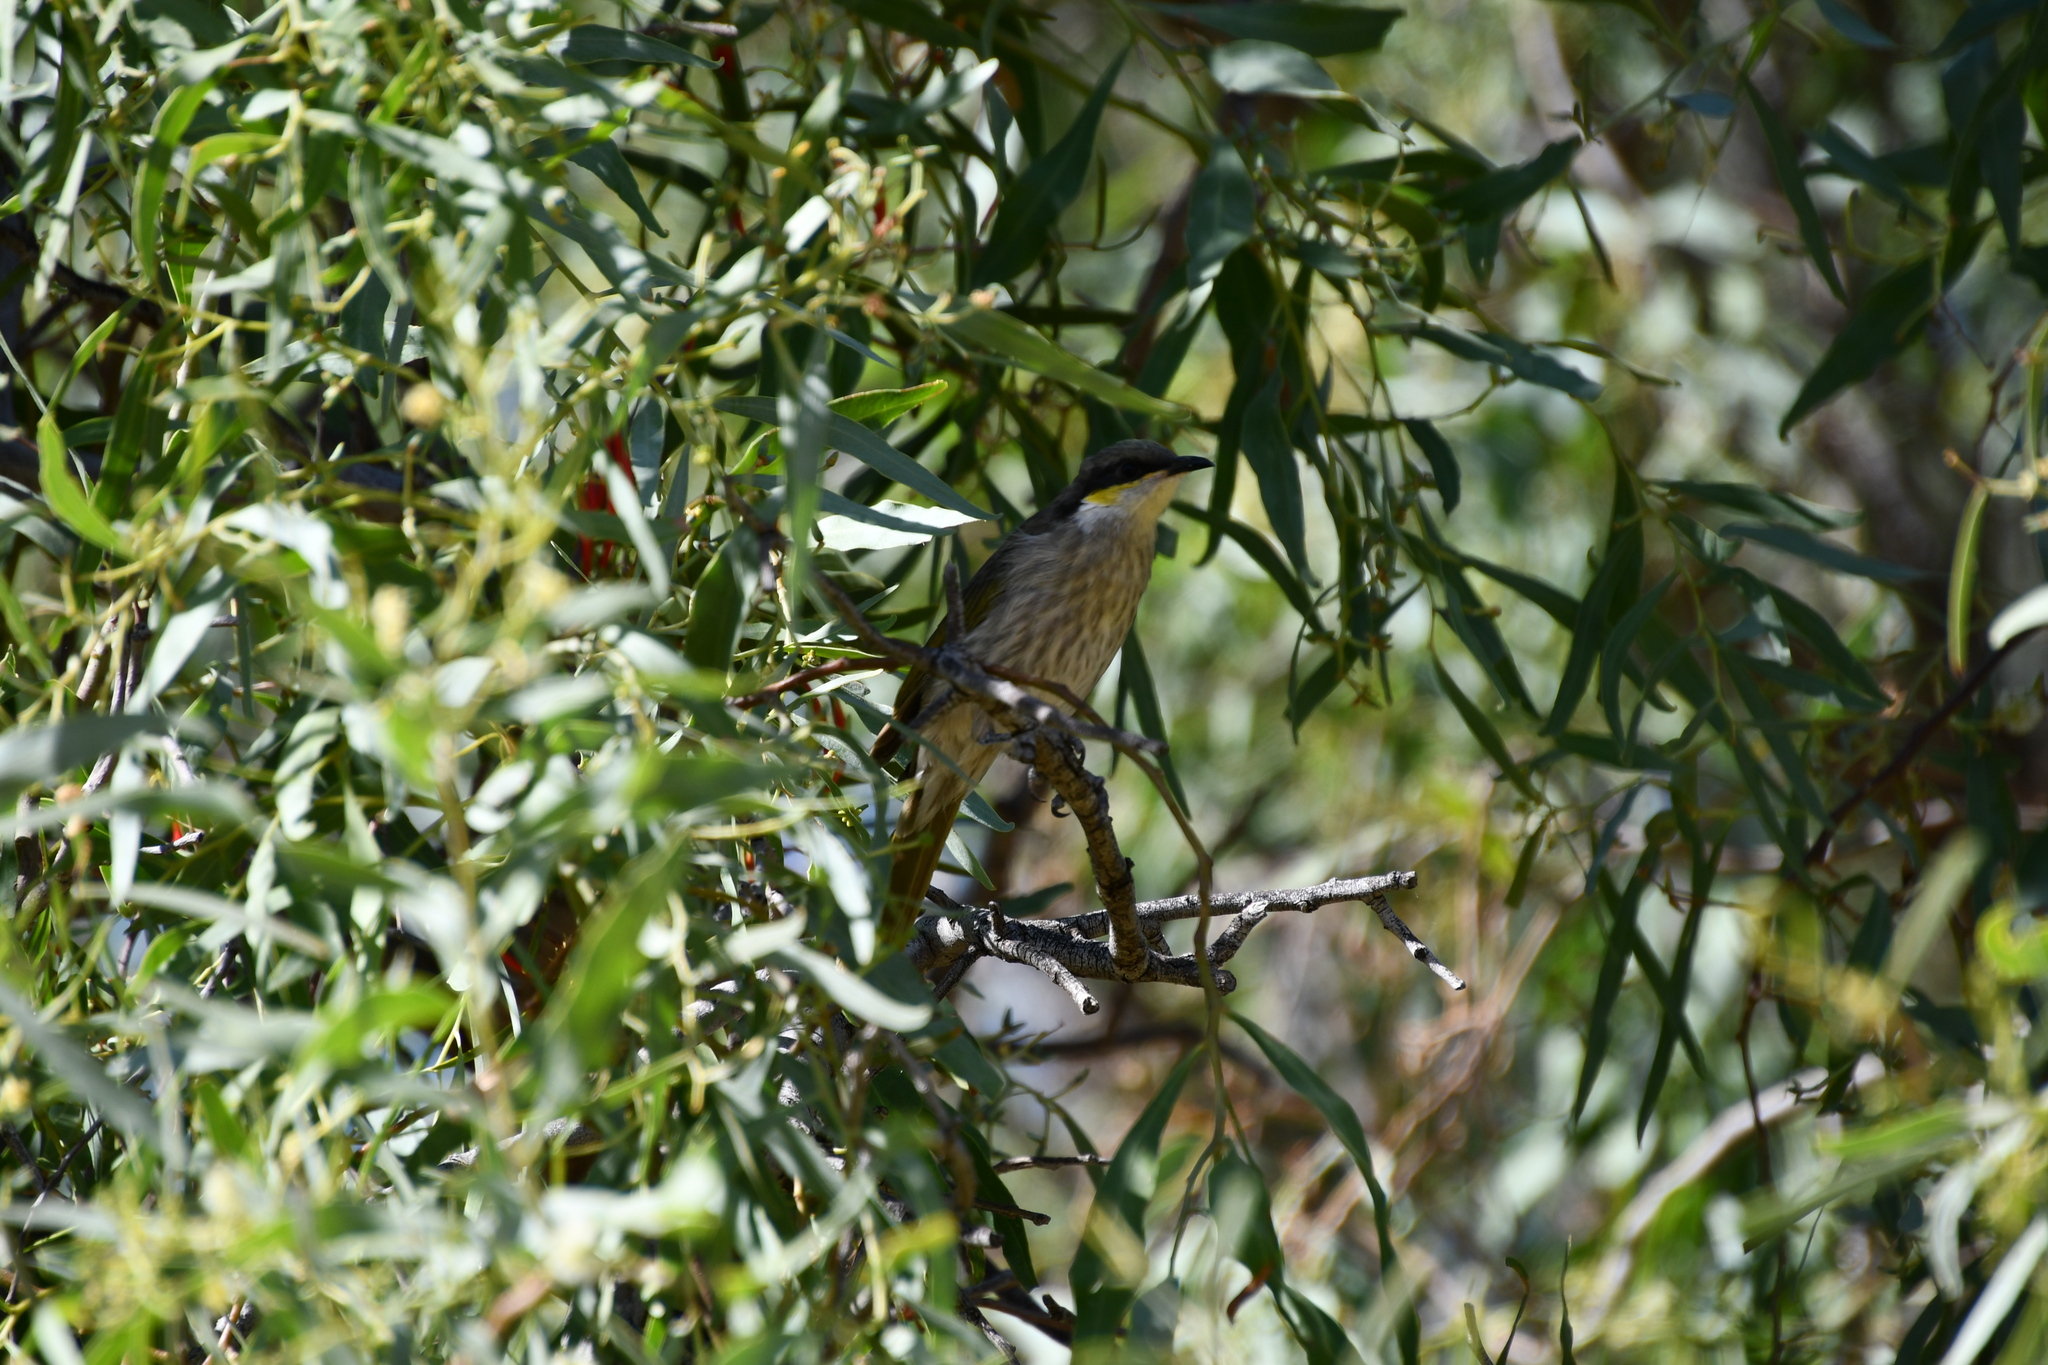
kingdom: Animalia
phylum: Chordata
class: Aves
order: Passeriformes
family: Meliphagidae
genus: Gavicalis
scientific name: Gavicalis virescens
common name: Singing honeyeater
